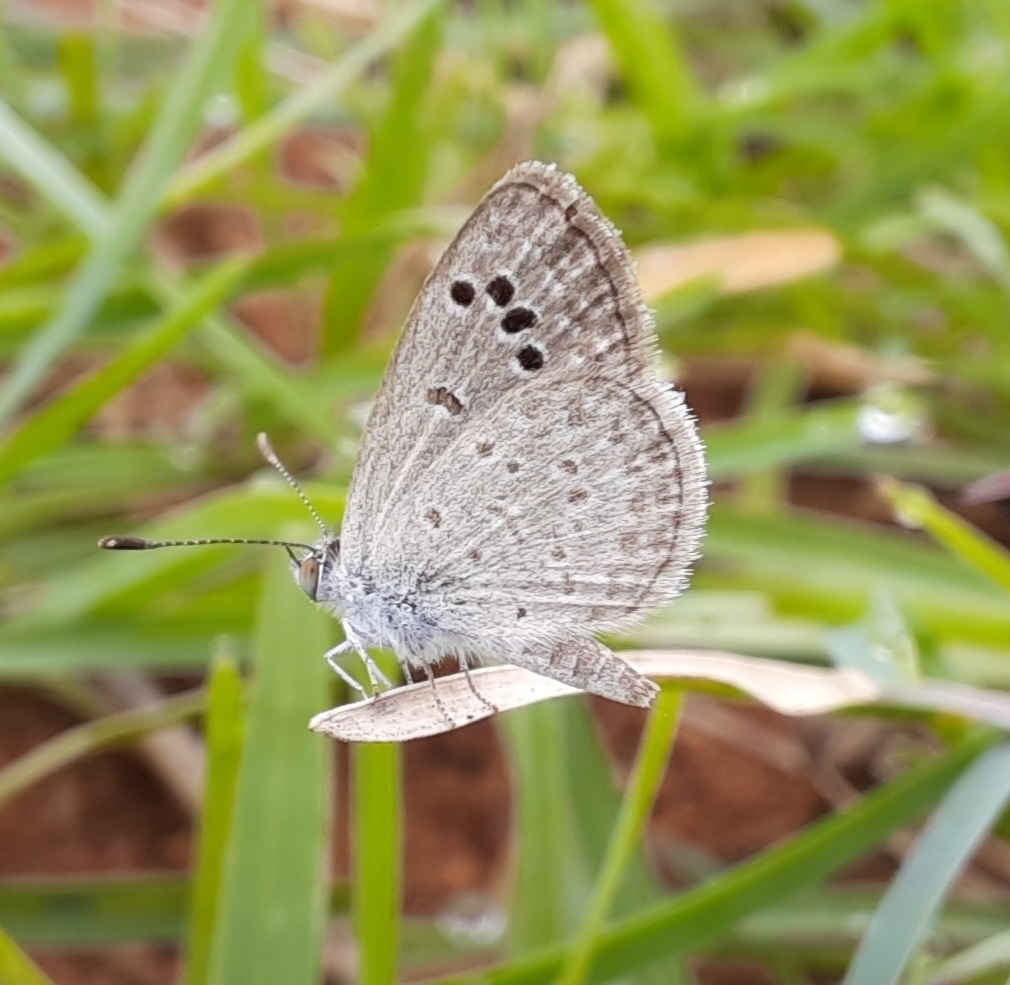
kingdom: Animalia
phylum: Arthropoda
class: Insecta
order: Lepidoptera
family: Lycaenidae
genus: Zizina
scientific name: Zizina otis
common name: Lesser grass blue
